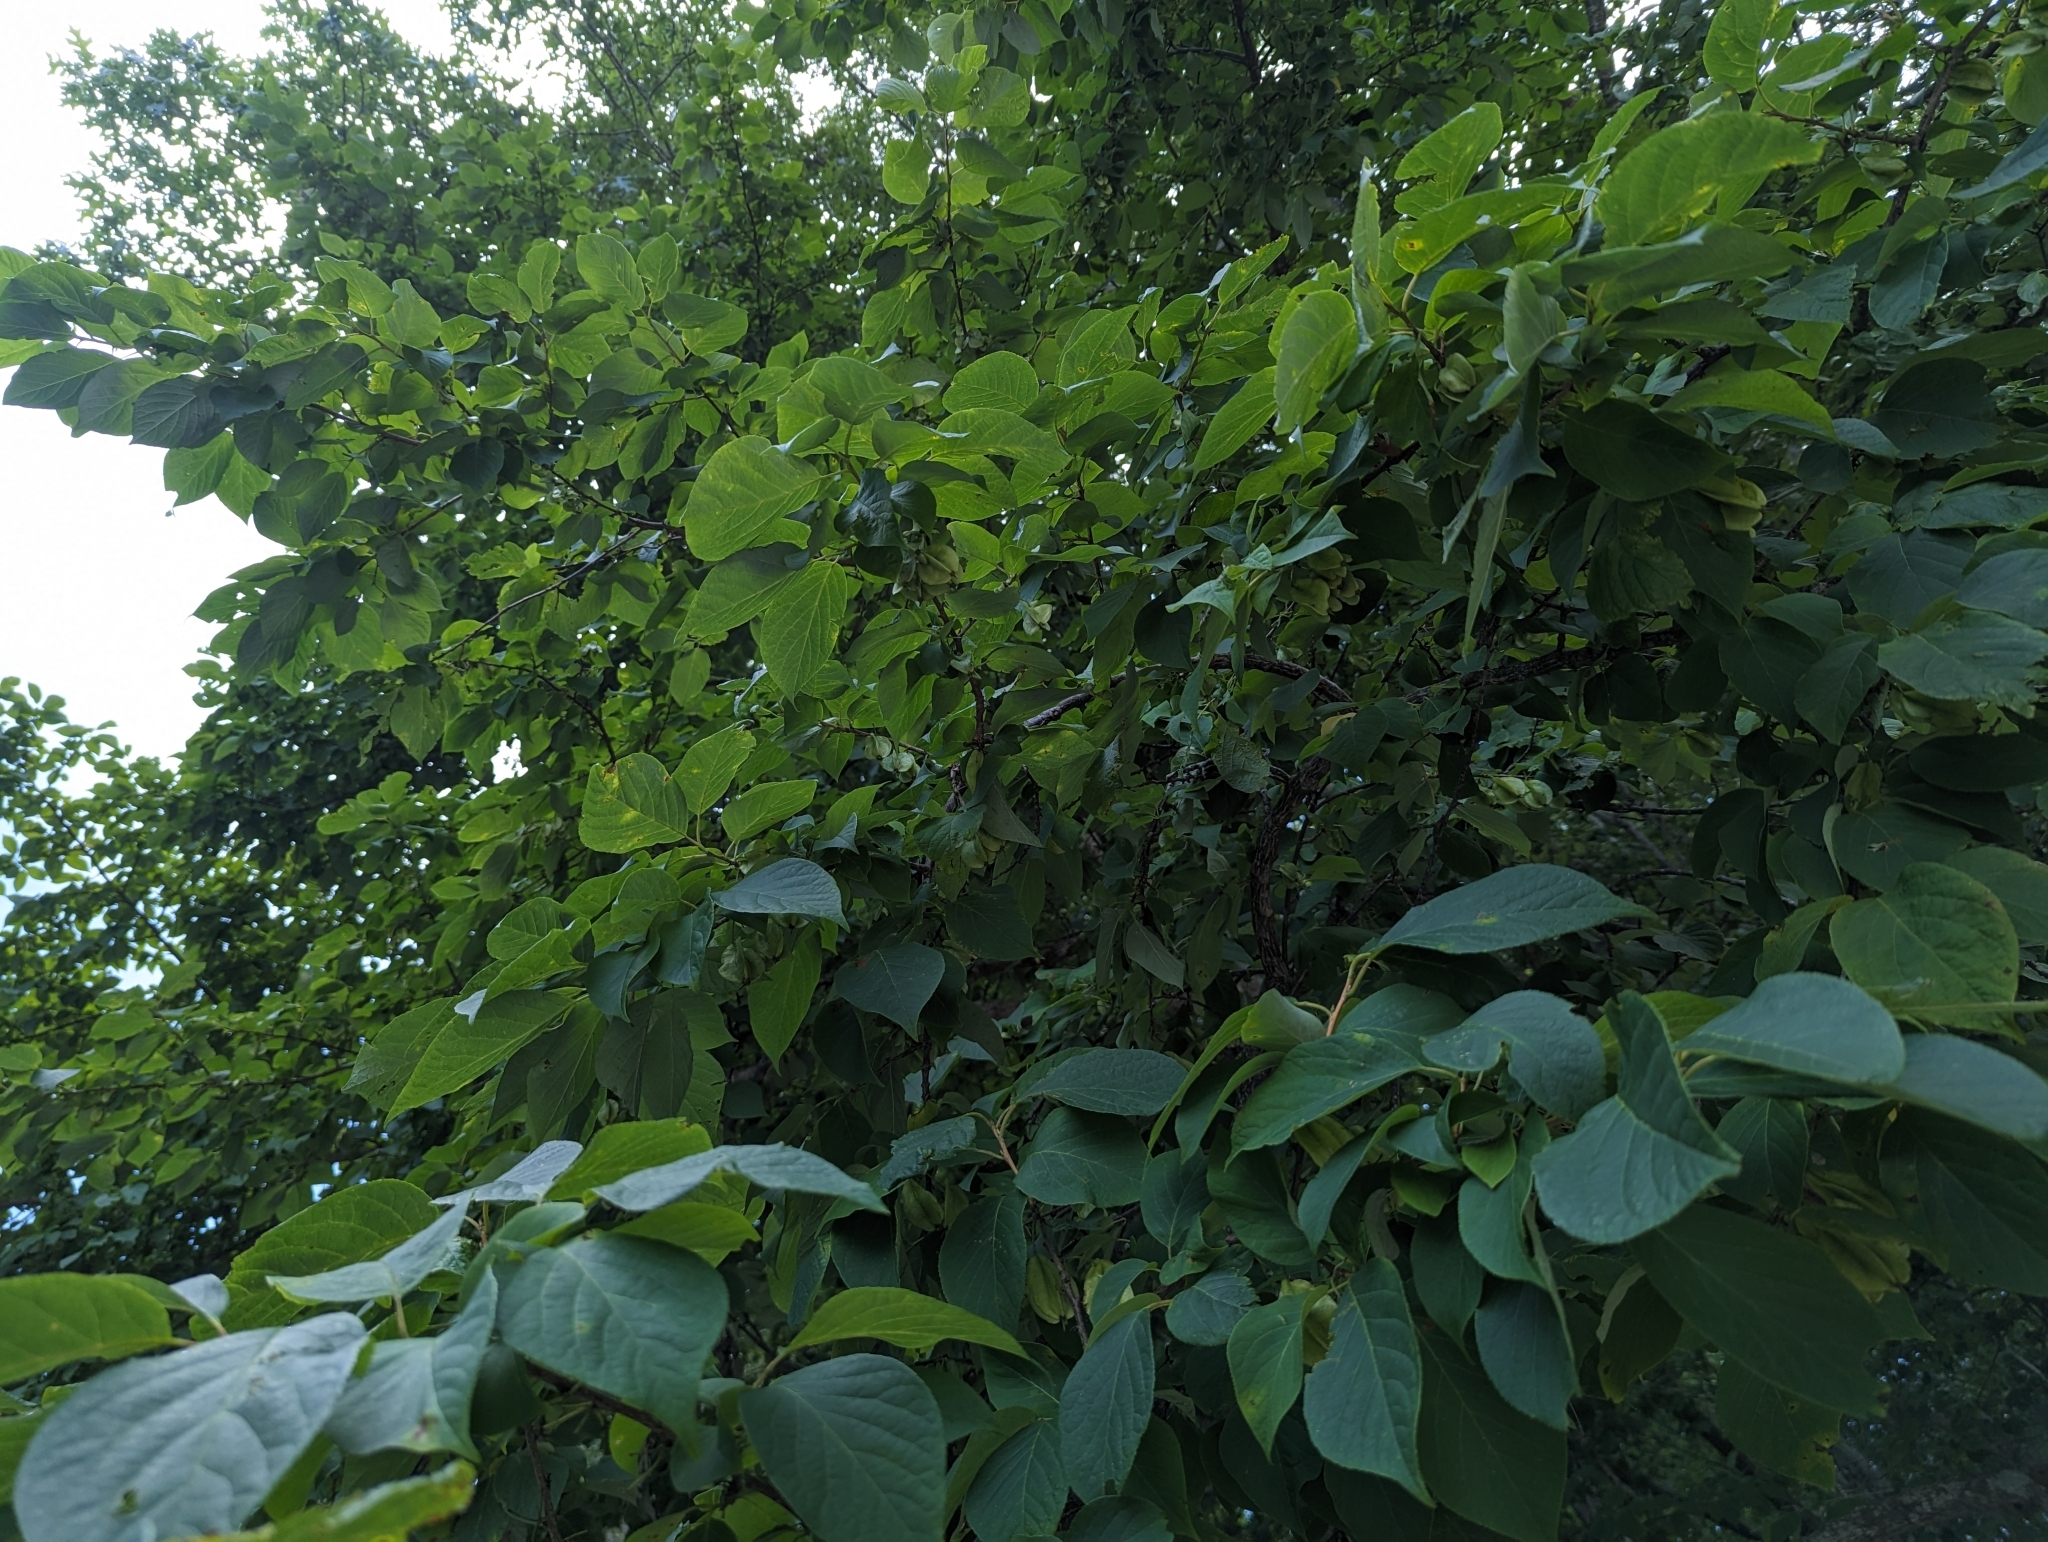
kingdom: Plantae
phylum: Tracheophyta
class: Magnoliopsida
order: Ericales
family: Styracaceae
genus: Halesia
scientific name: Halesia carolina
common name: Carolina silverbell
